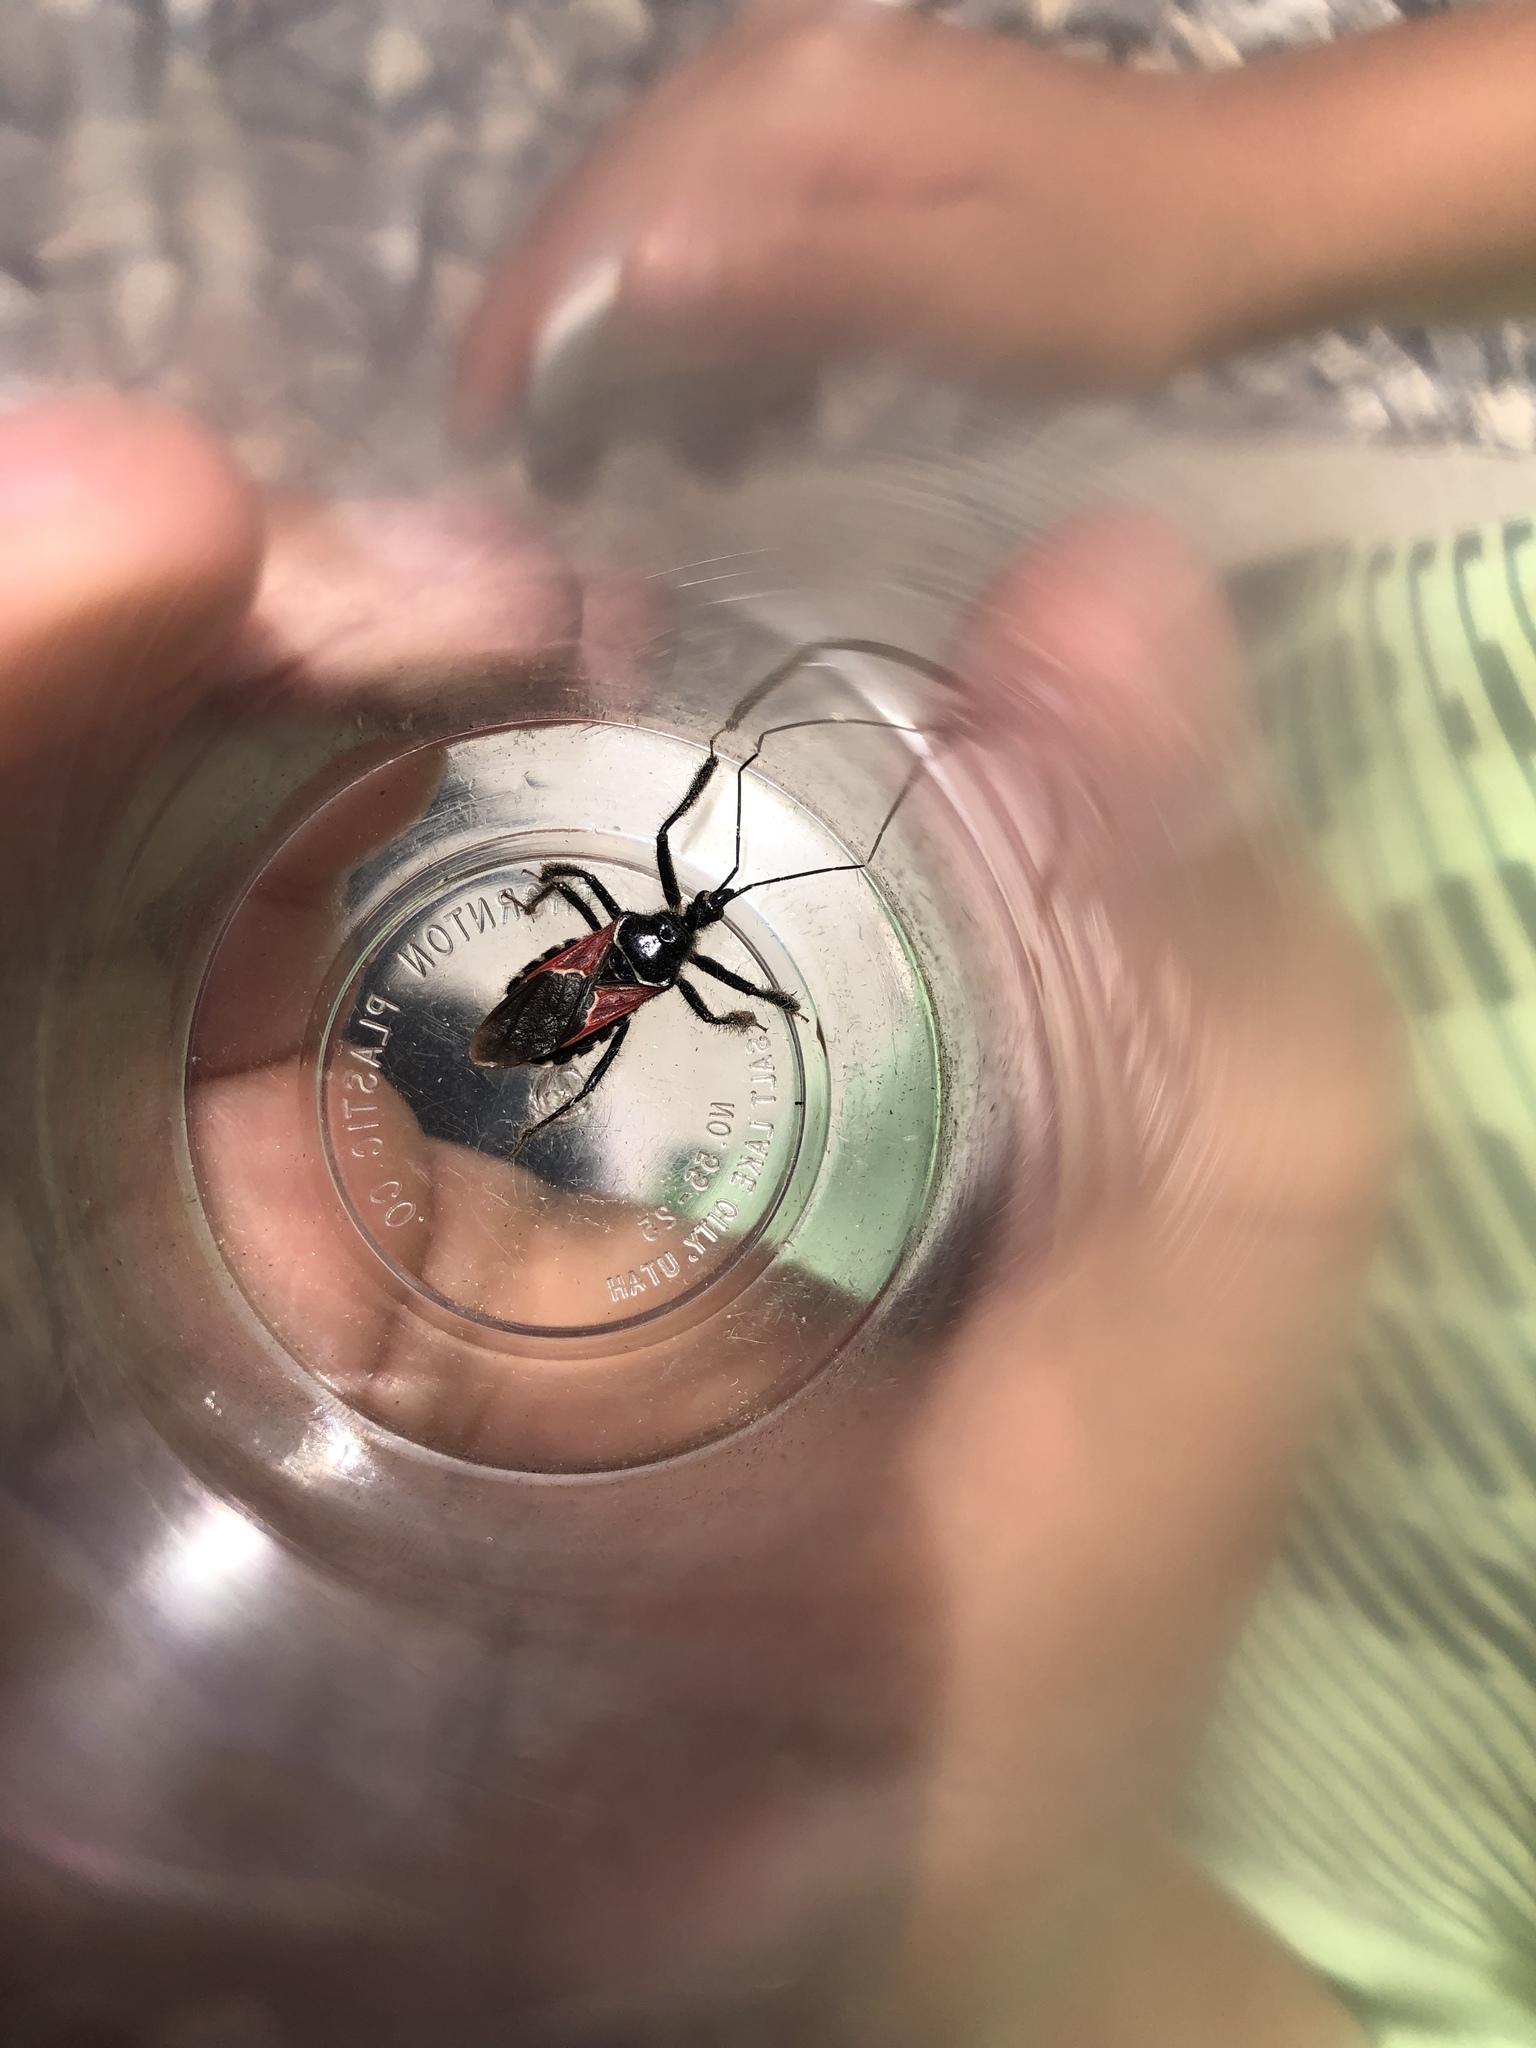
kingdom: Animalia
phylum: Arthropoda
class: Insecta
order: Hemiptera
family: Reduviidae
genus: Apiomerus
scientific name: Apiomerus montanus
